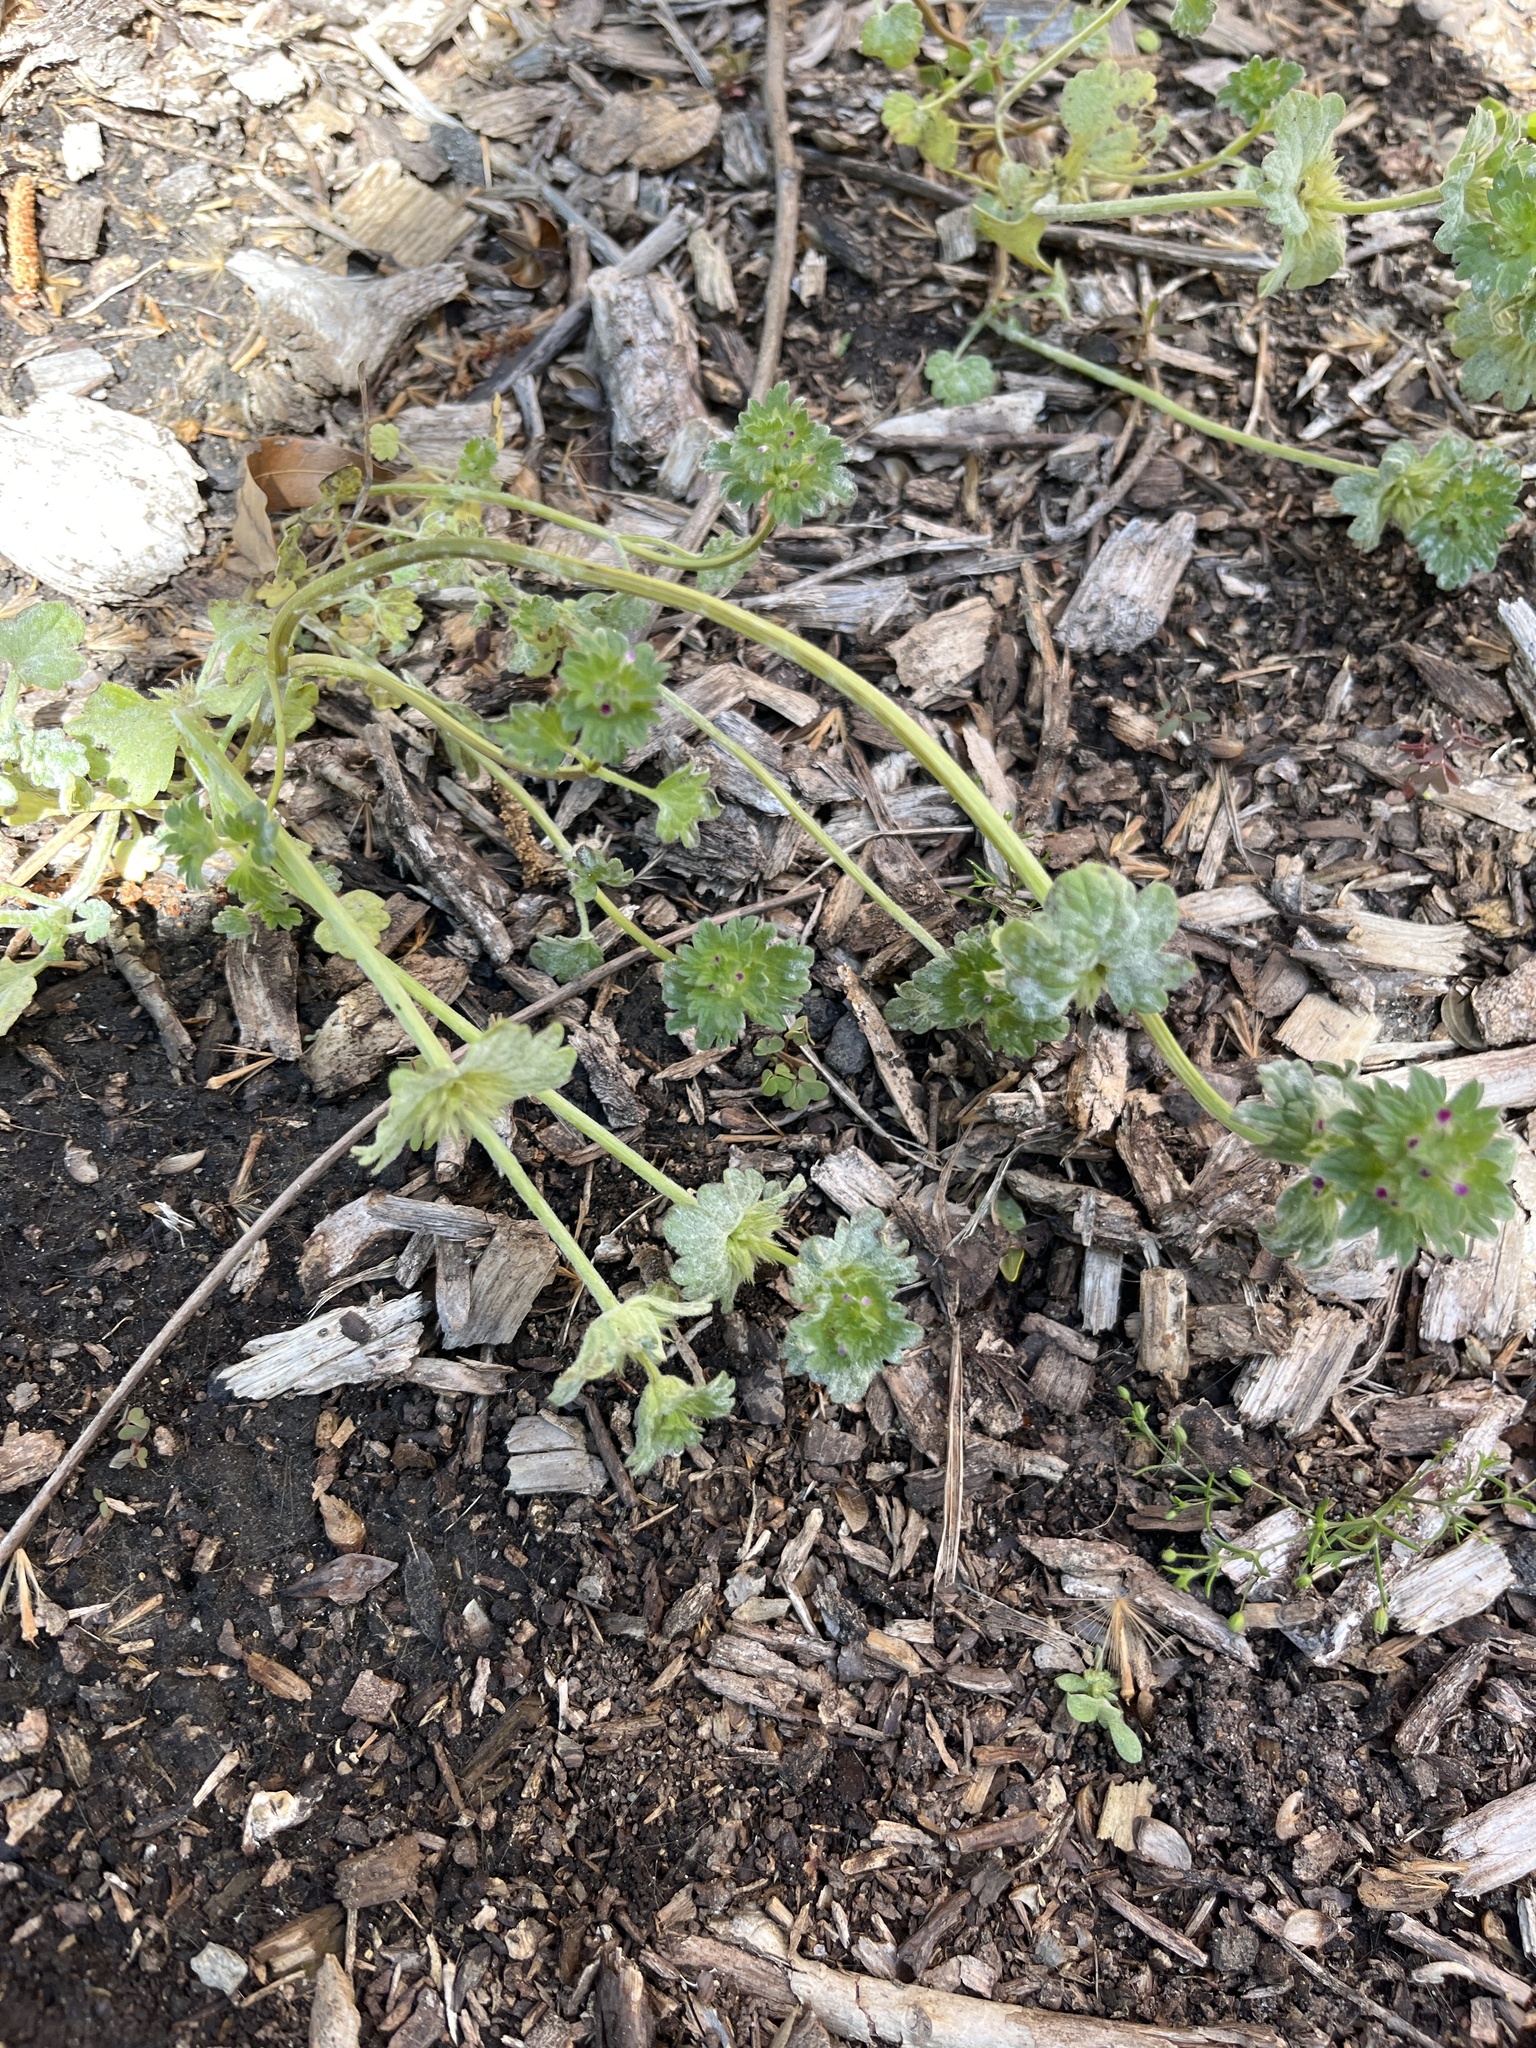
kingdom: Plantae
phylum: Tracheophyta
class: Magnoliopsida
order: Lamiales
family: Lamiaceae
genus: Lamium
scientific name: Lamium amplexicaule
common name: Henbit dead-nettle
